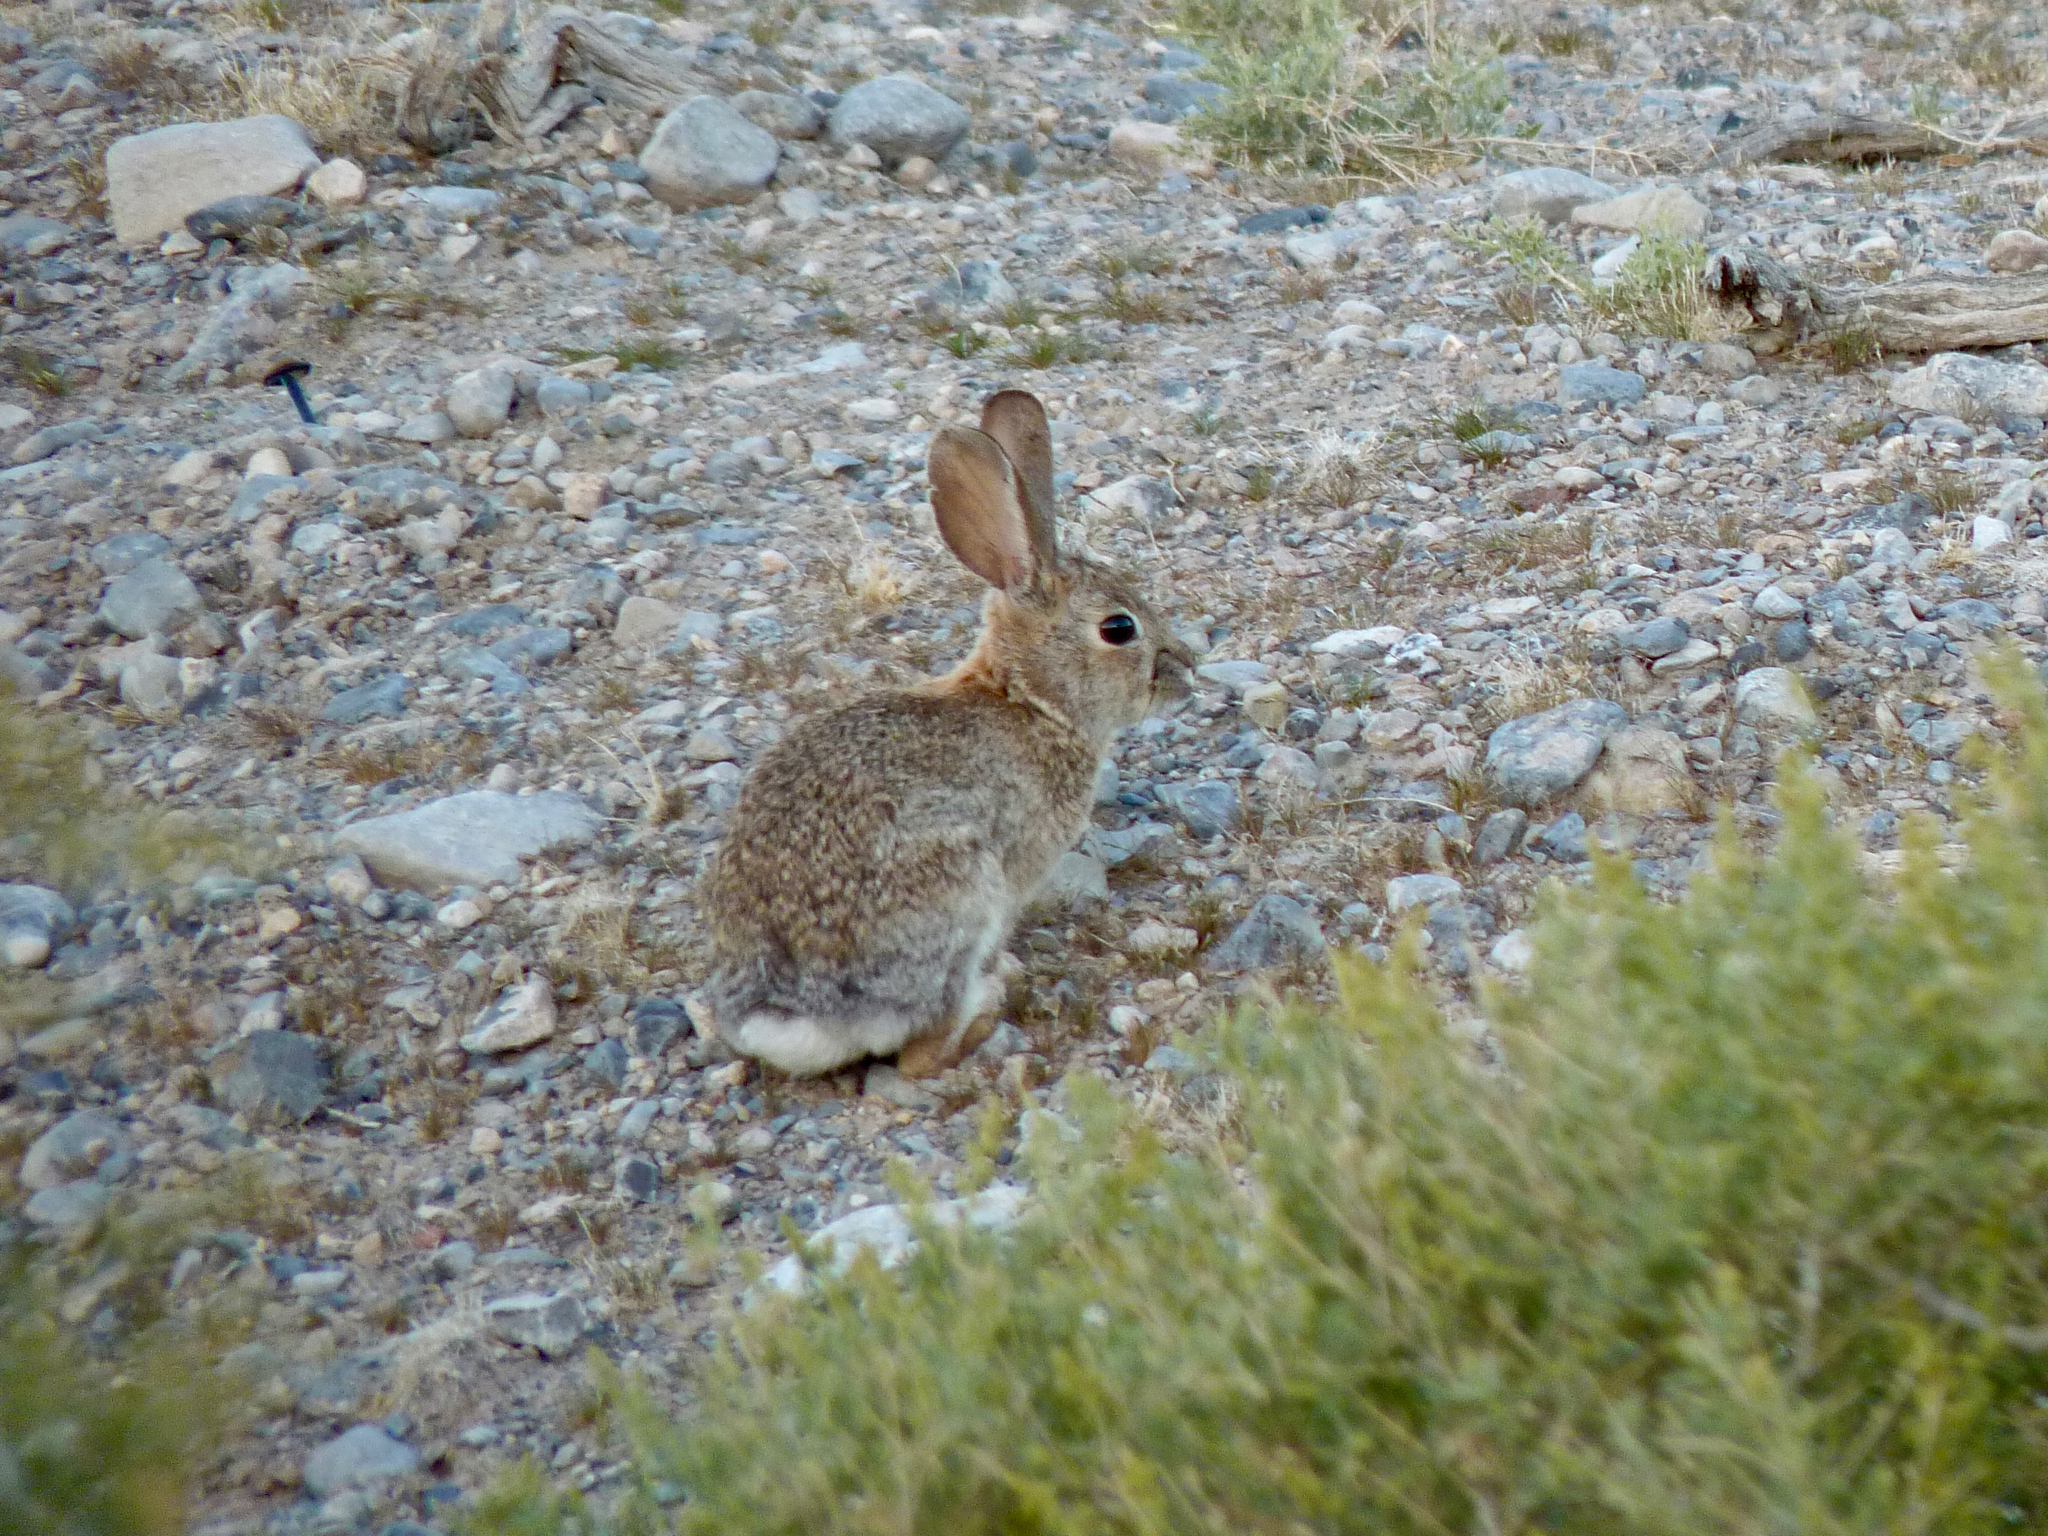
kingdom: Animalia
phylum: Chordata
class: Mammalia
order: Lagomorpha
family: Leporidae
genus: Sylvilagus
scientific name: Sylvilagus audubonii
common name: Desert cottontail
